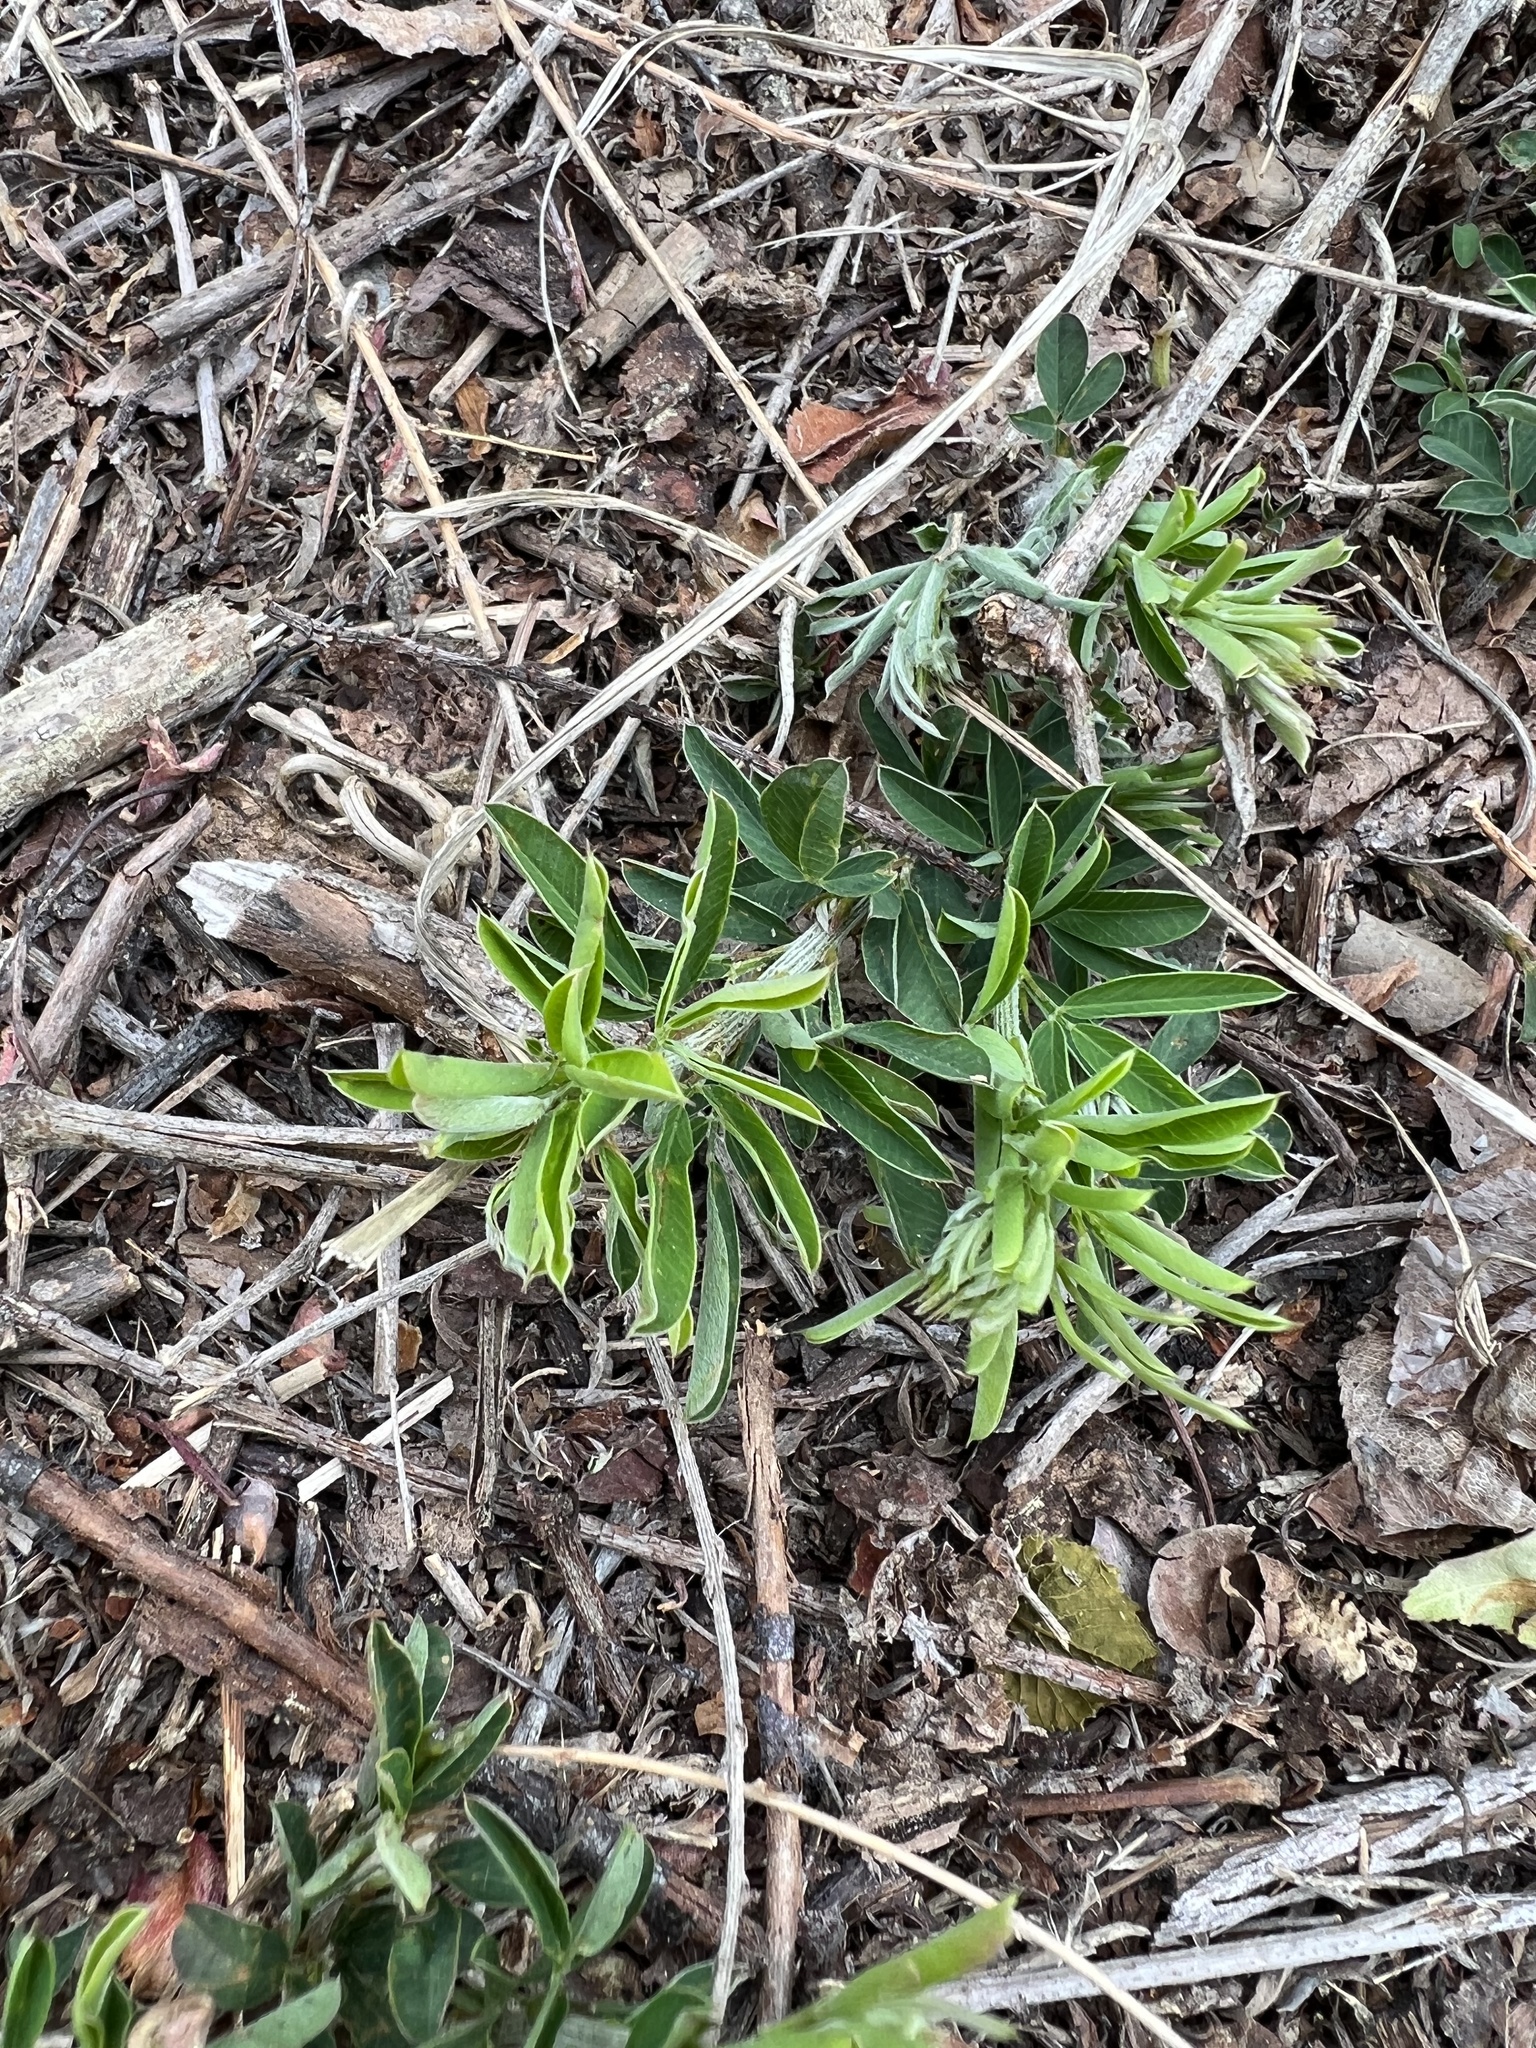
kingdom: Plantae
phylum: Tracheophyta
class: Magnoliopsida
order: Fabales
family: Fabaceae
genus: Lespedeza
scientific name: Lespedeza cuneata
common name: Chinese bush-clover
